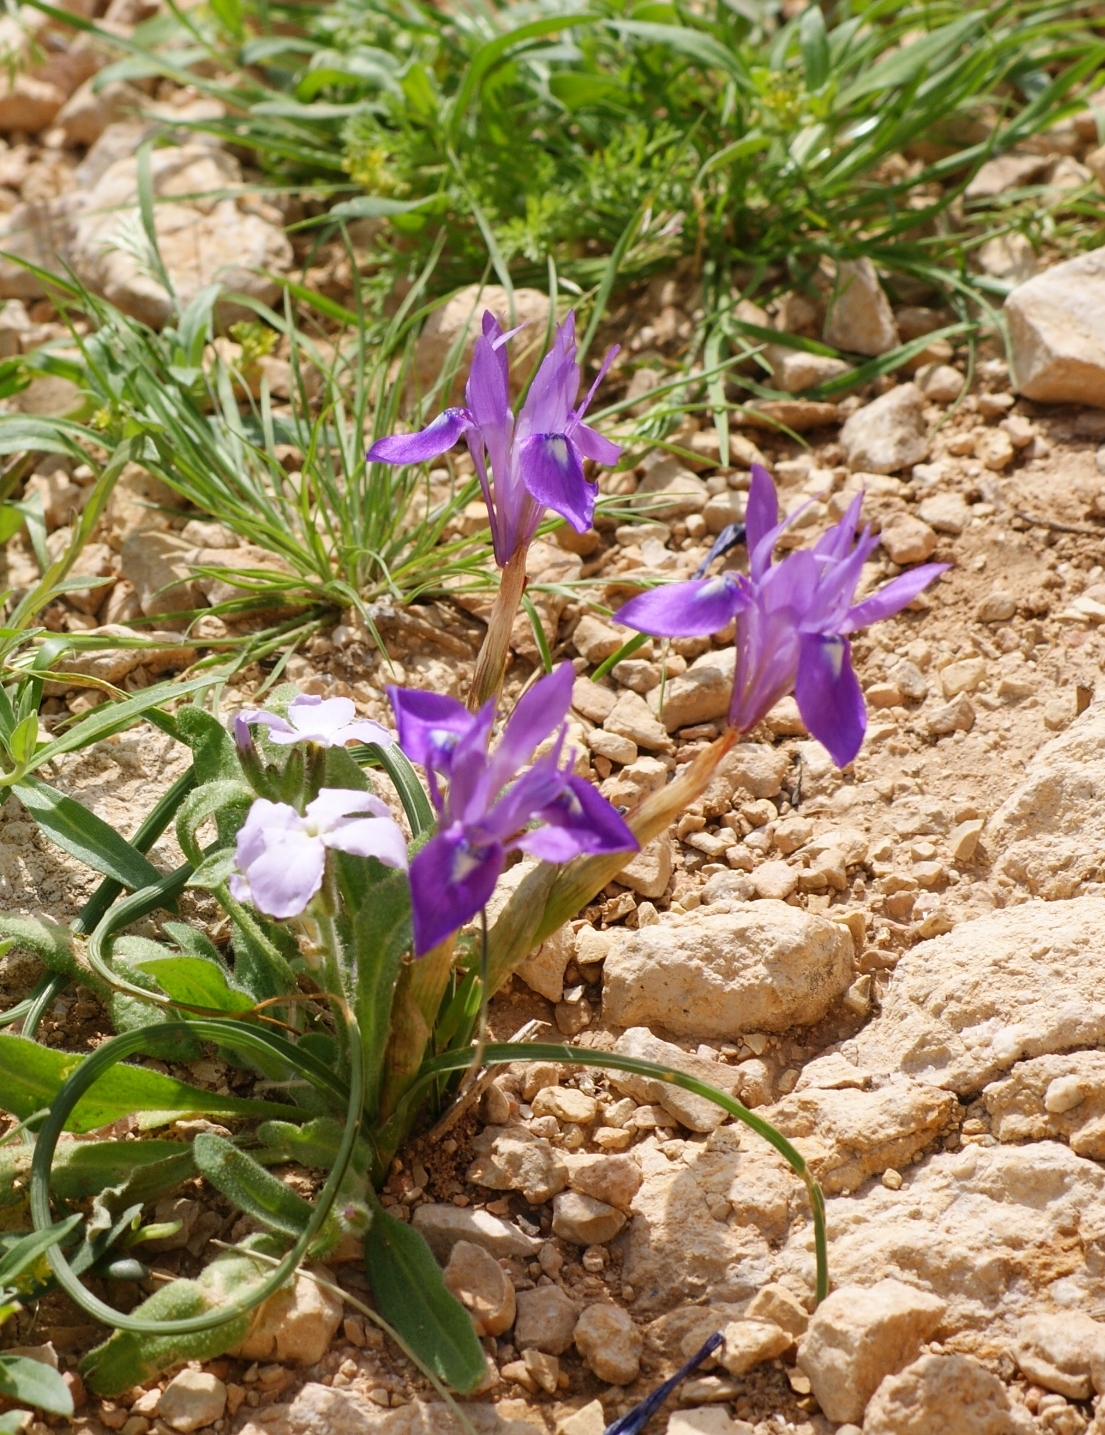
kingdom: Plantae
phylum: Tracheophyta
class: Liliopsida
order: Asparagales
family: Iridaceae
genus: Moraea
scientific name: Moraea sisyrinchium
